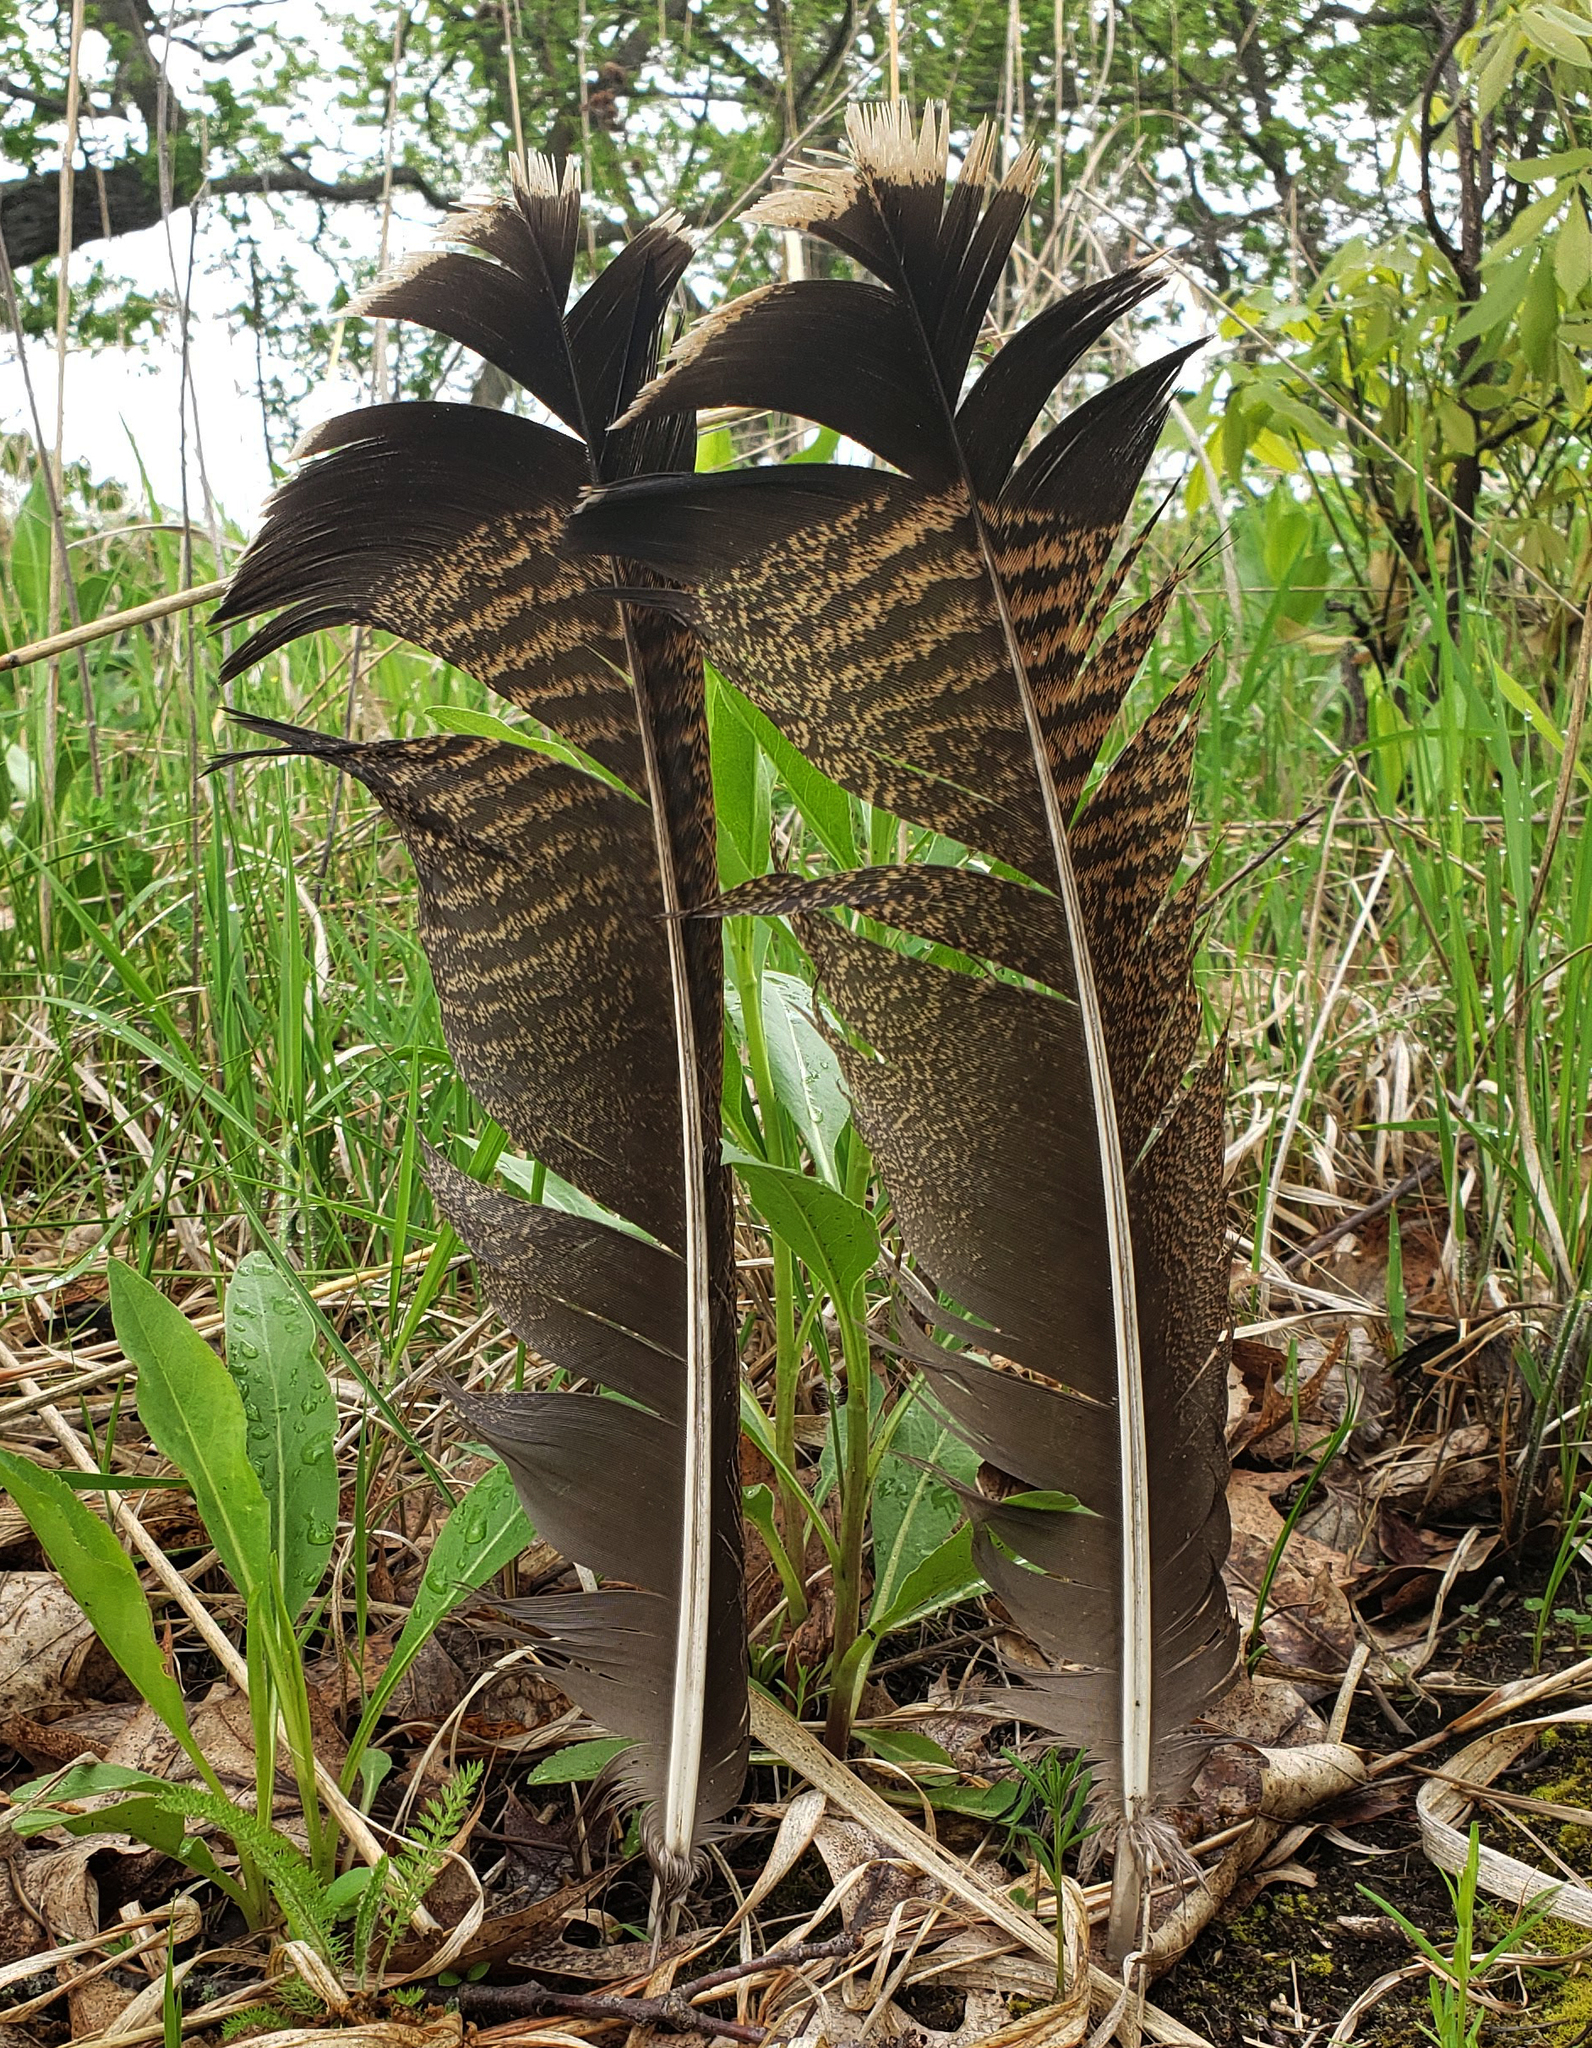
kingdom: Animalia
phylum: Chordata
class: Aves
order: Galliformes
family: Phasianidae
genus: Meleagris
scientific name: Meleagris gallopavo
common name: Wild turkey
